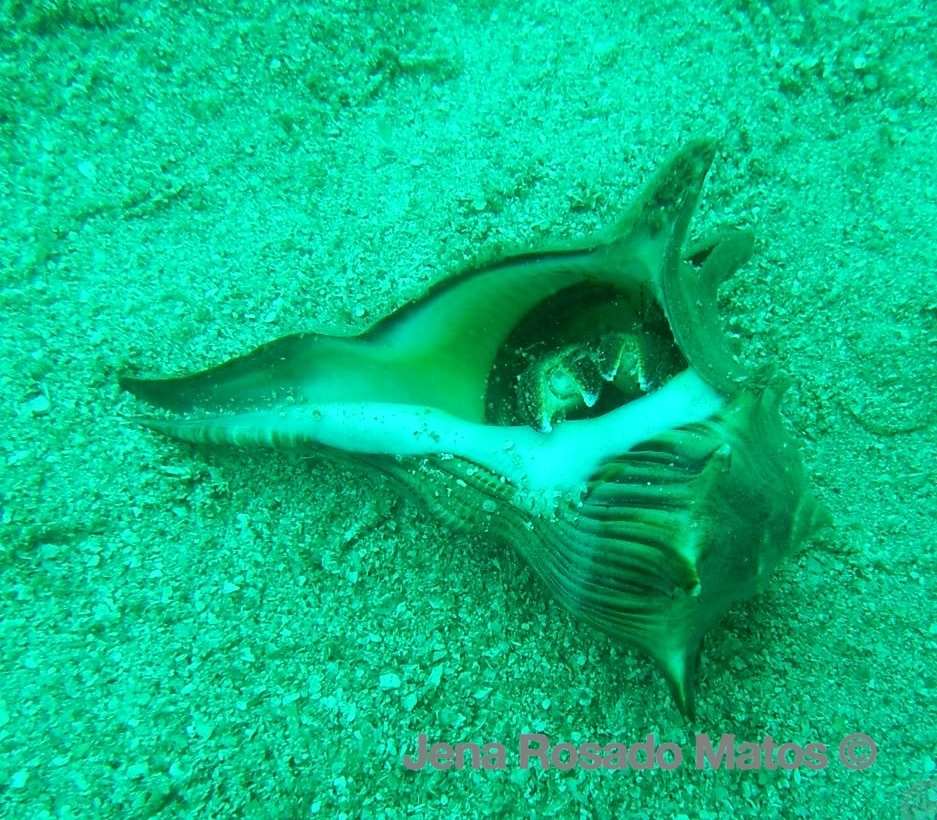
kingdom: Animalia
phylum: Mollusca
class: Gastropoda
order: Neogastropoda
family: Busyconidae
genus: Sinistrofulgur
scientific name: Sinistrofulgur perversum
